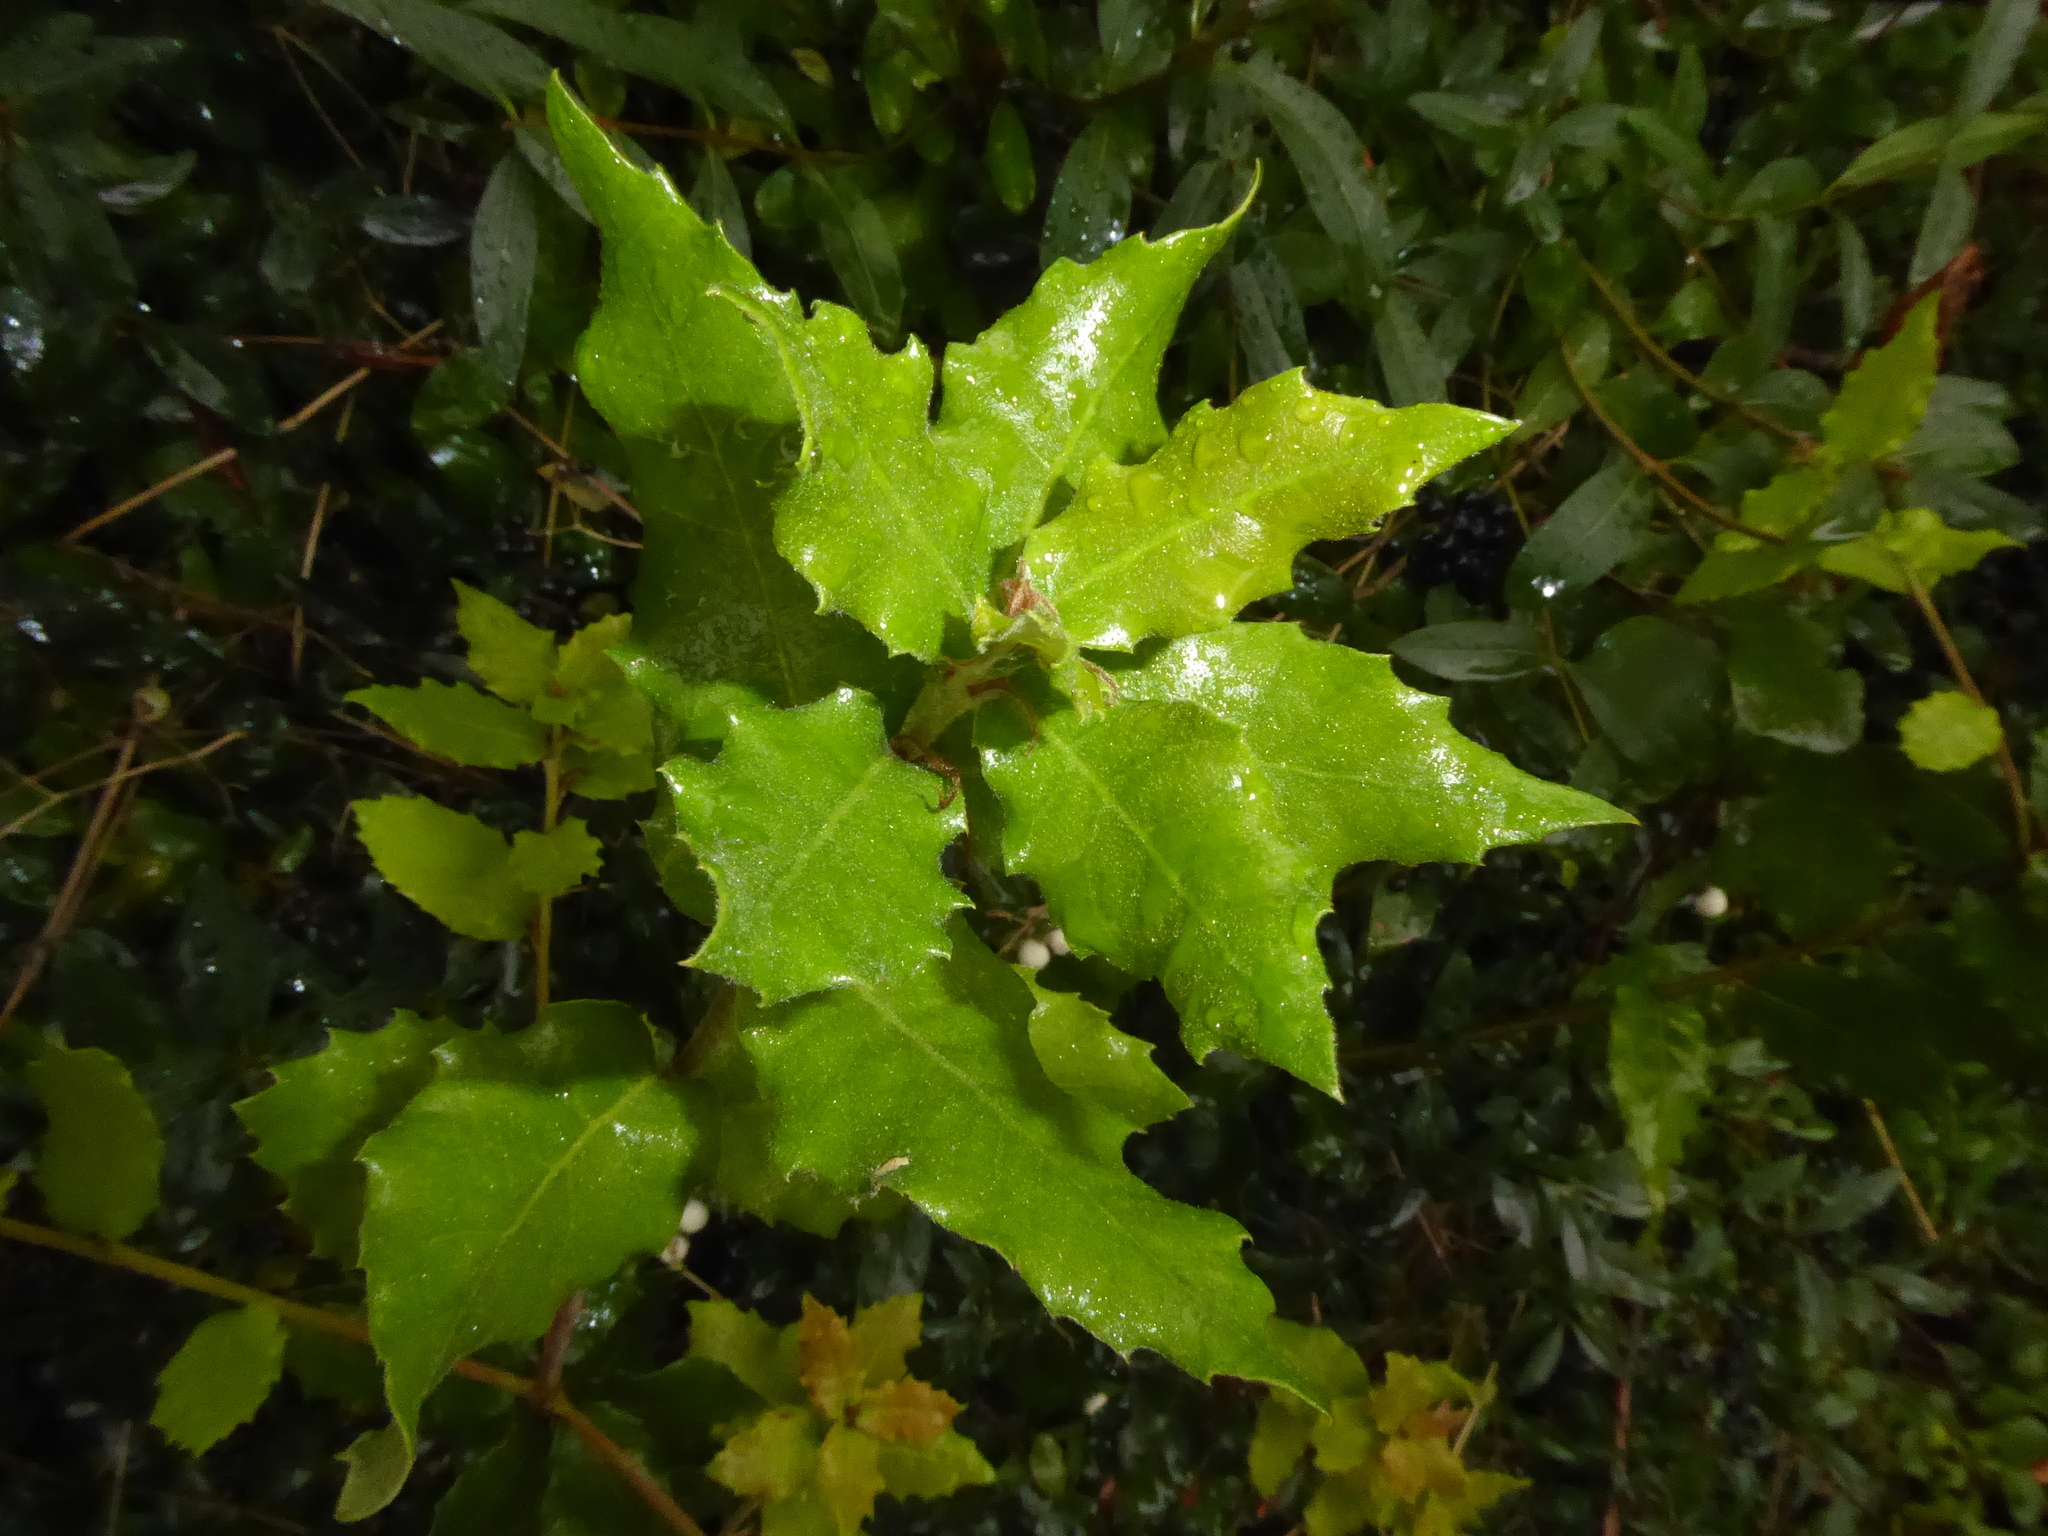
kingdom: Plantae
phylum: Tracheophyta
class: Magnoliopsida
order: Fagales
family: Fagaceae
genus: Quercus
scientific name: Quercus ilex
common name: Evergreen oak
